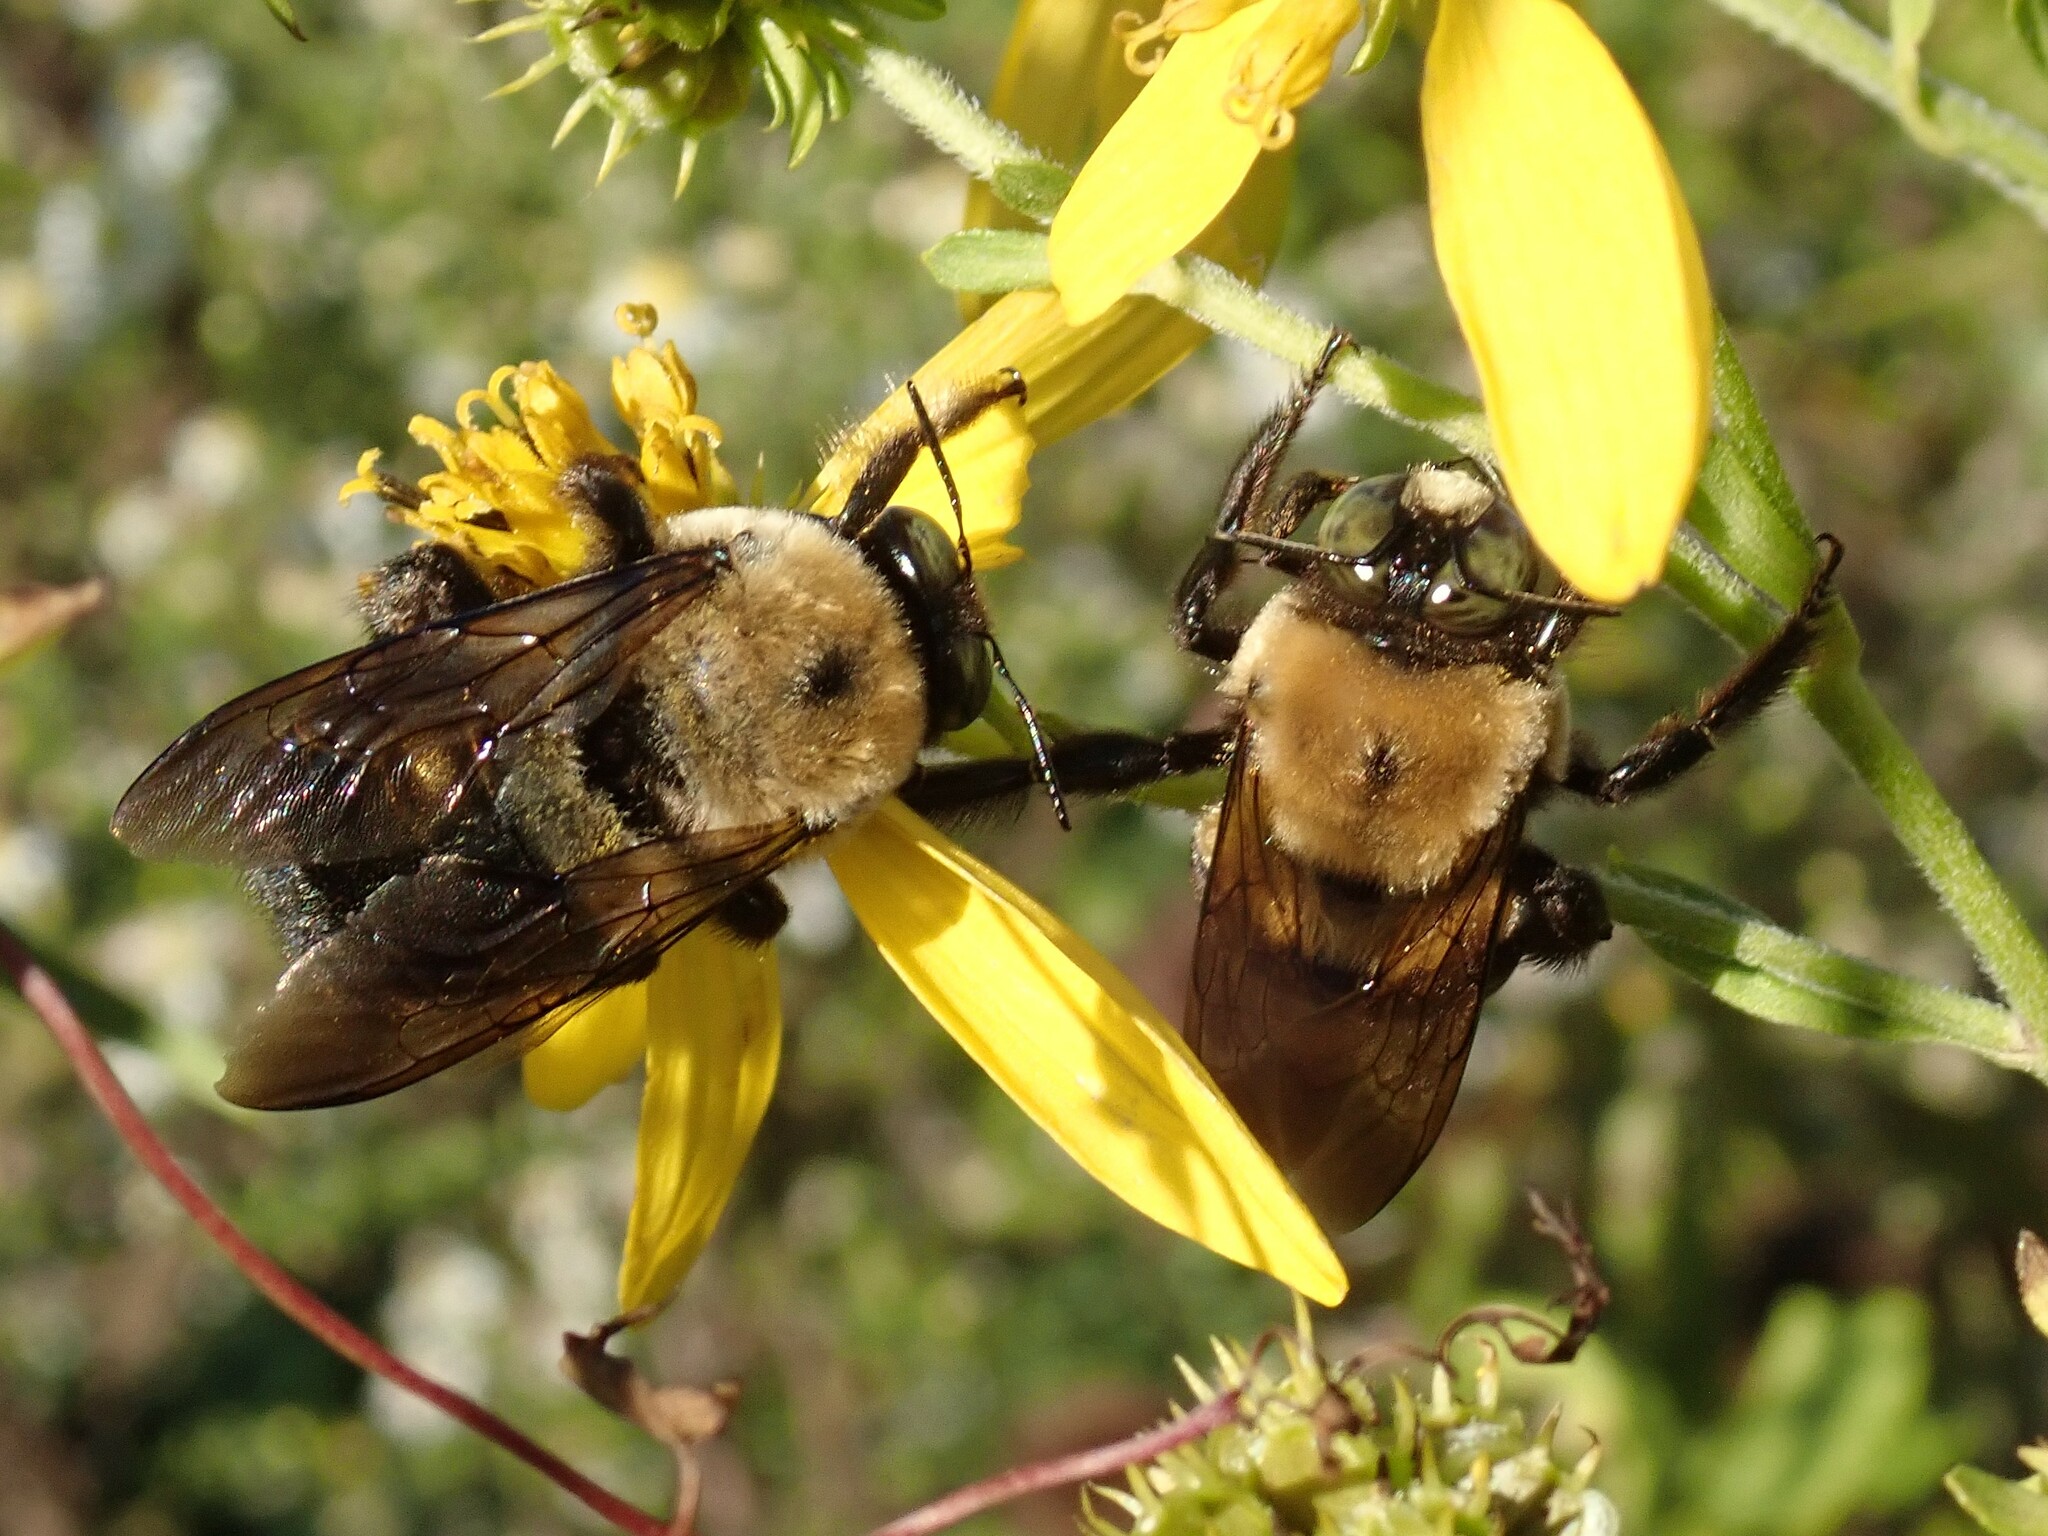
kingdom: Animalia
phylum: Arthropoda
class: Insecta
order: Hymenoptera
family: Apidae
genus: Xylocopa
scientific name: Xylocopa virginica
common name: Carpenter bee
